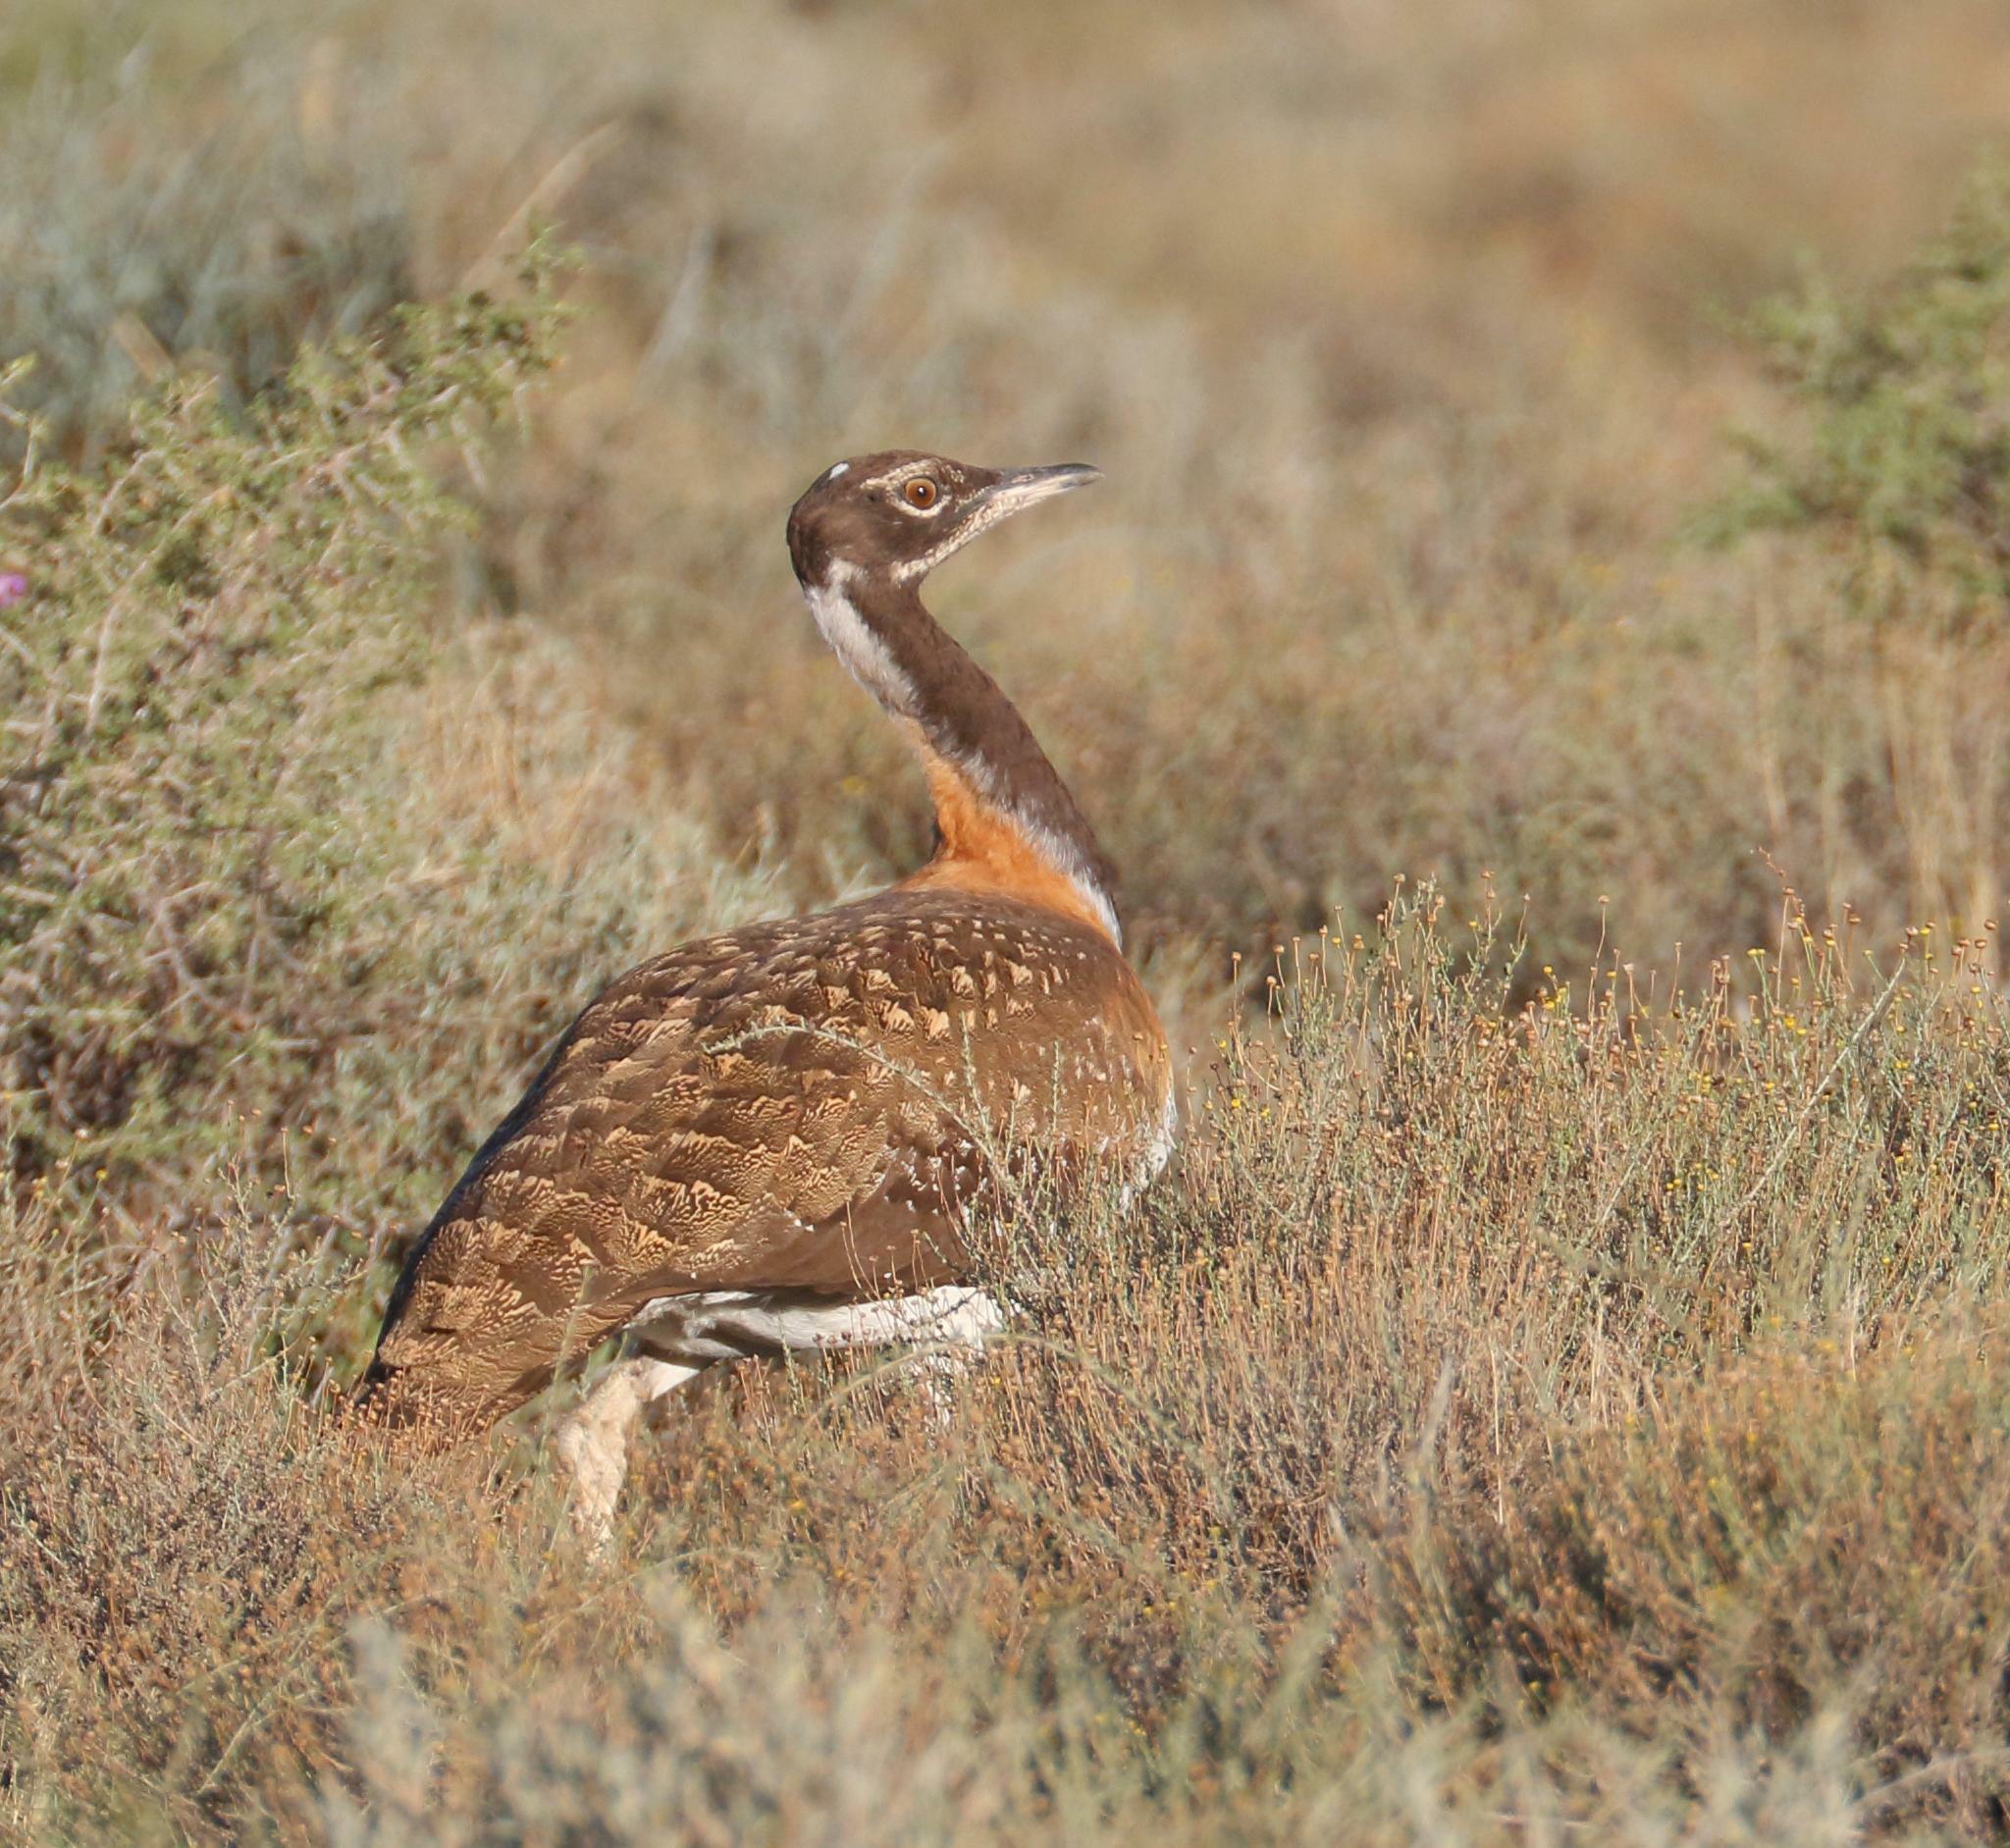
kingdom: Animalia
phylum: Chordata
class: Aves
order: Otidiformes
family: Otididae
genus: Neotis
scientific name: Neotis ludwigii
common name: Ludwig's bustard
